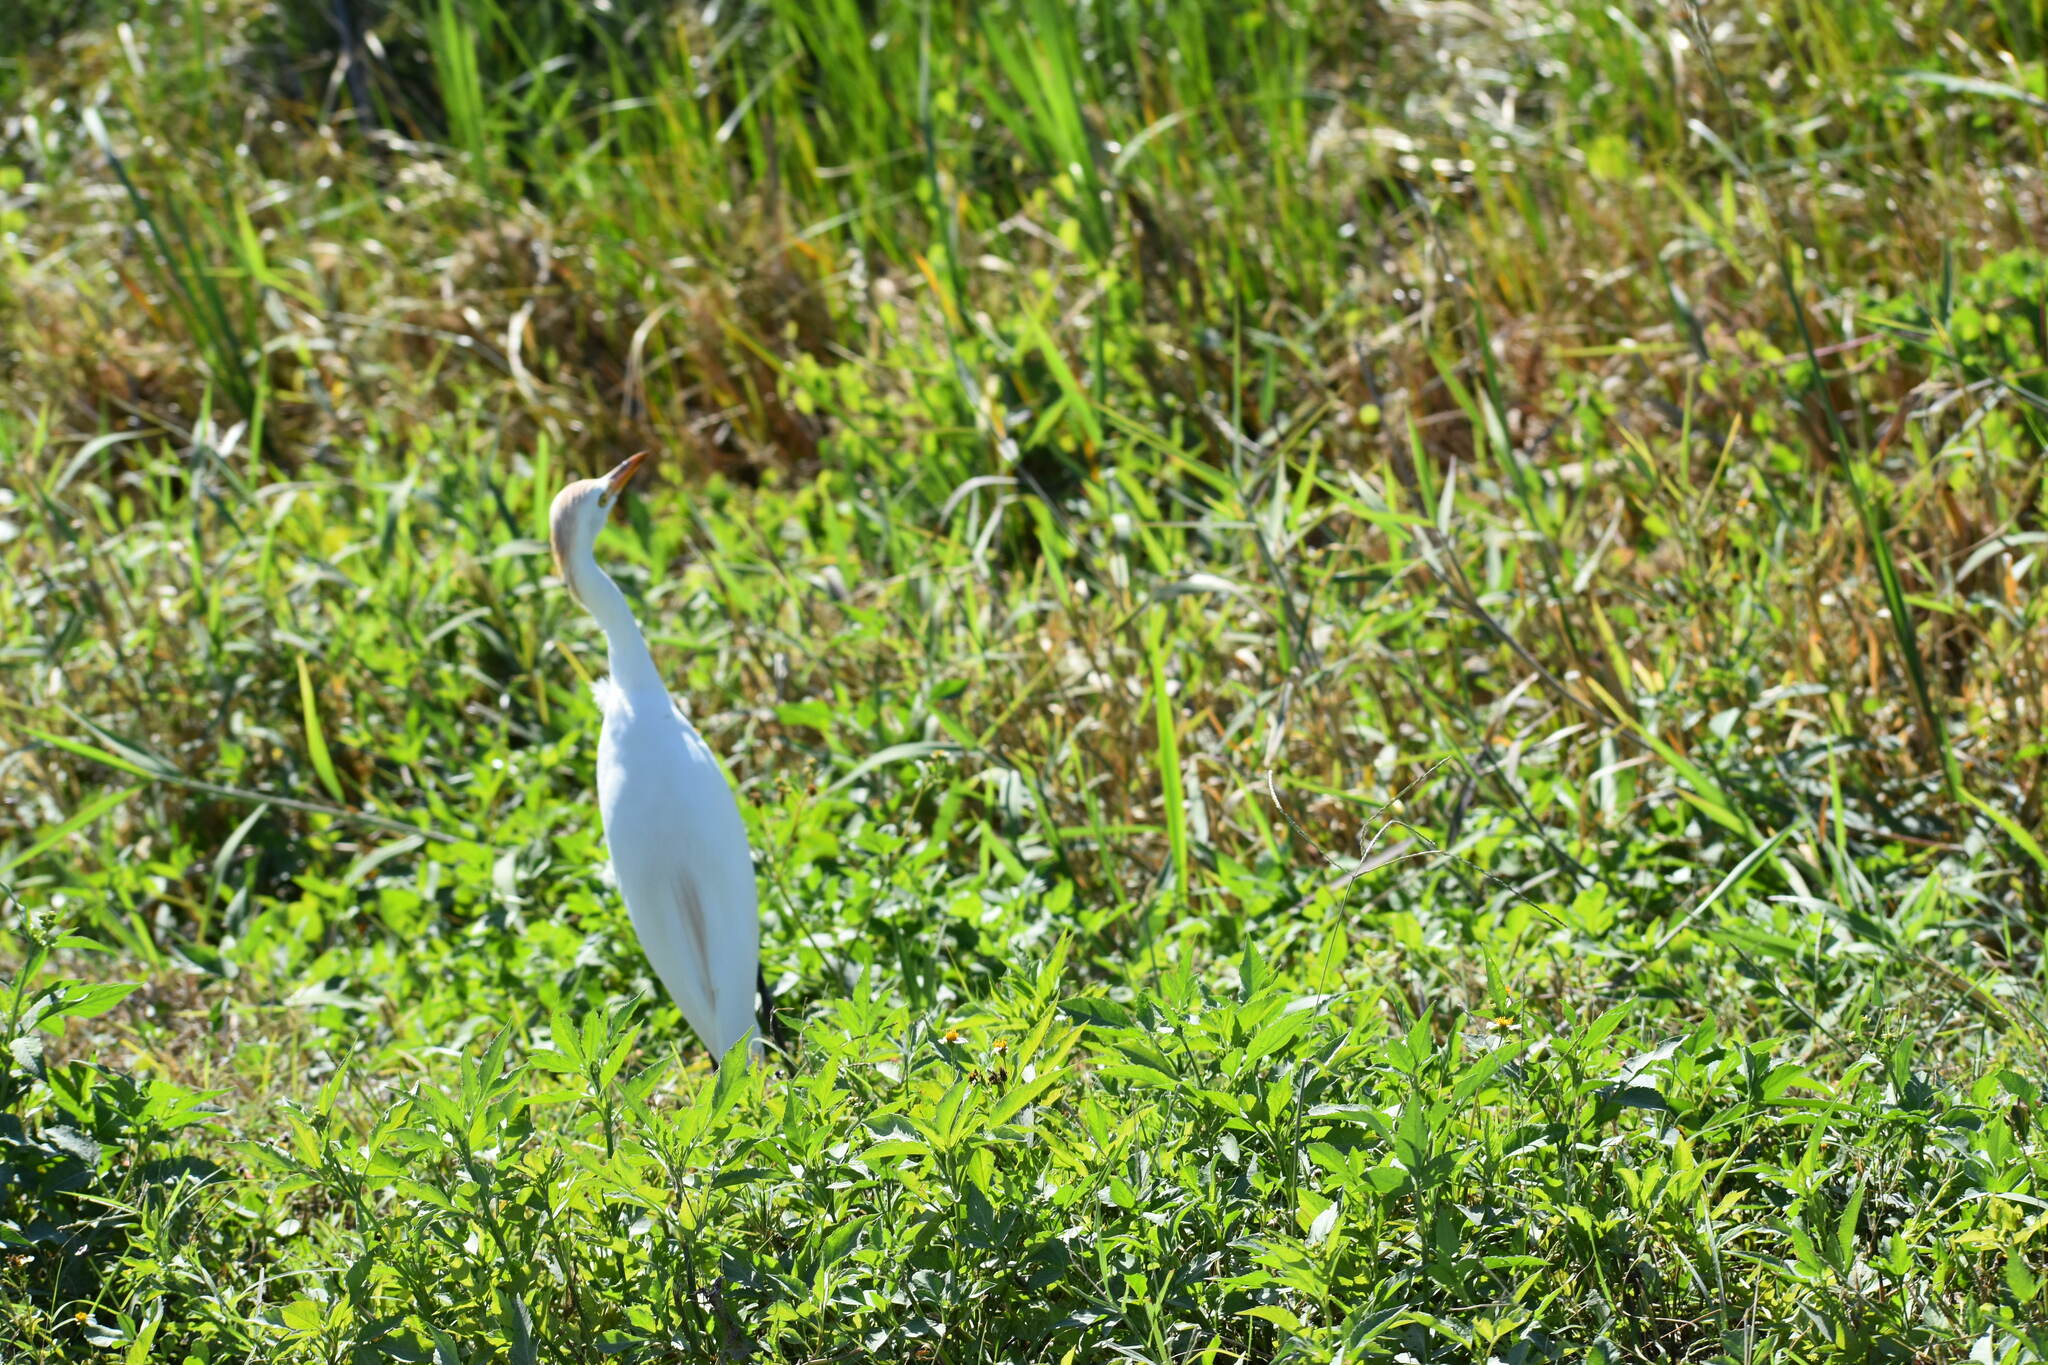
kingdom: Animalia
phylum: Chordata
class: Aves
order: Pelecaniformes
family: Ardeidae
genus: Bubulcus
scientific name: Bubulcus ibis
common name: Cattle egret
